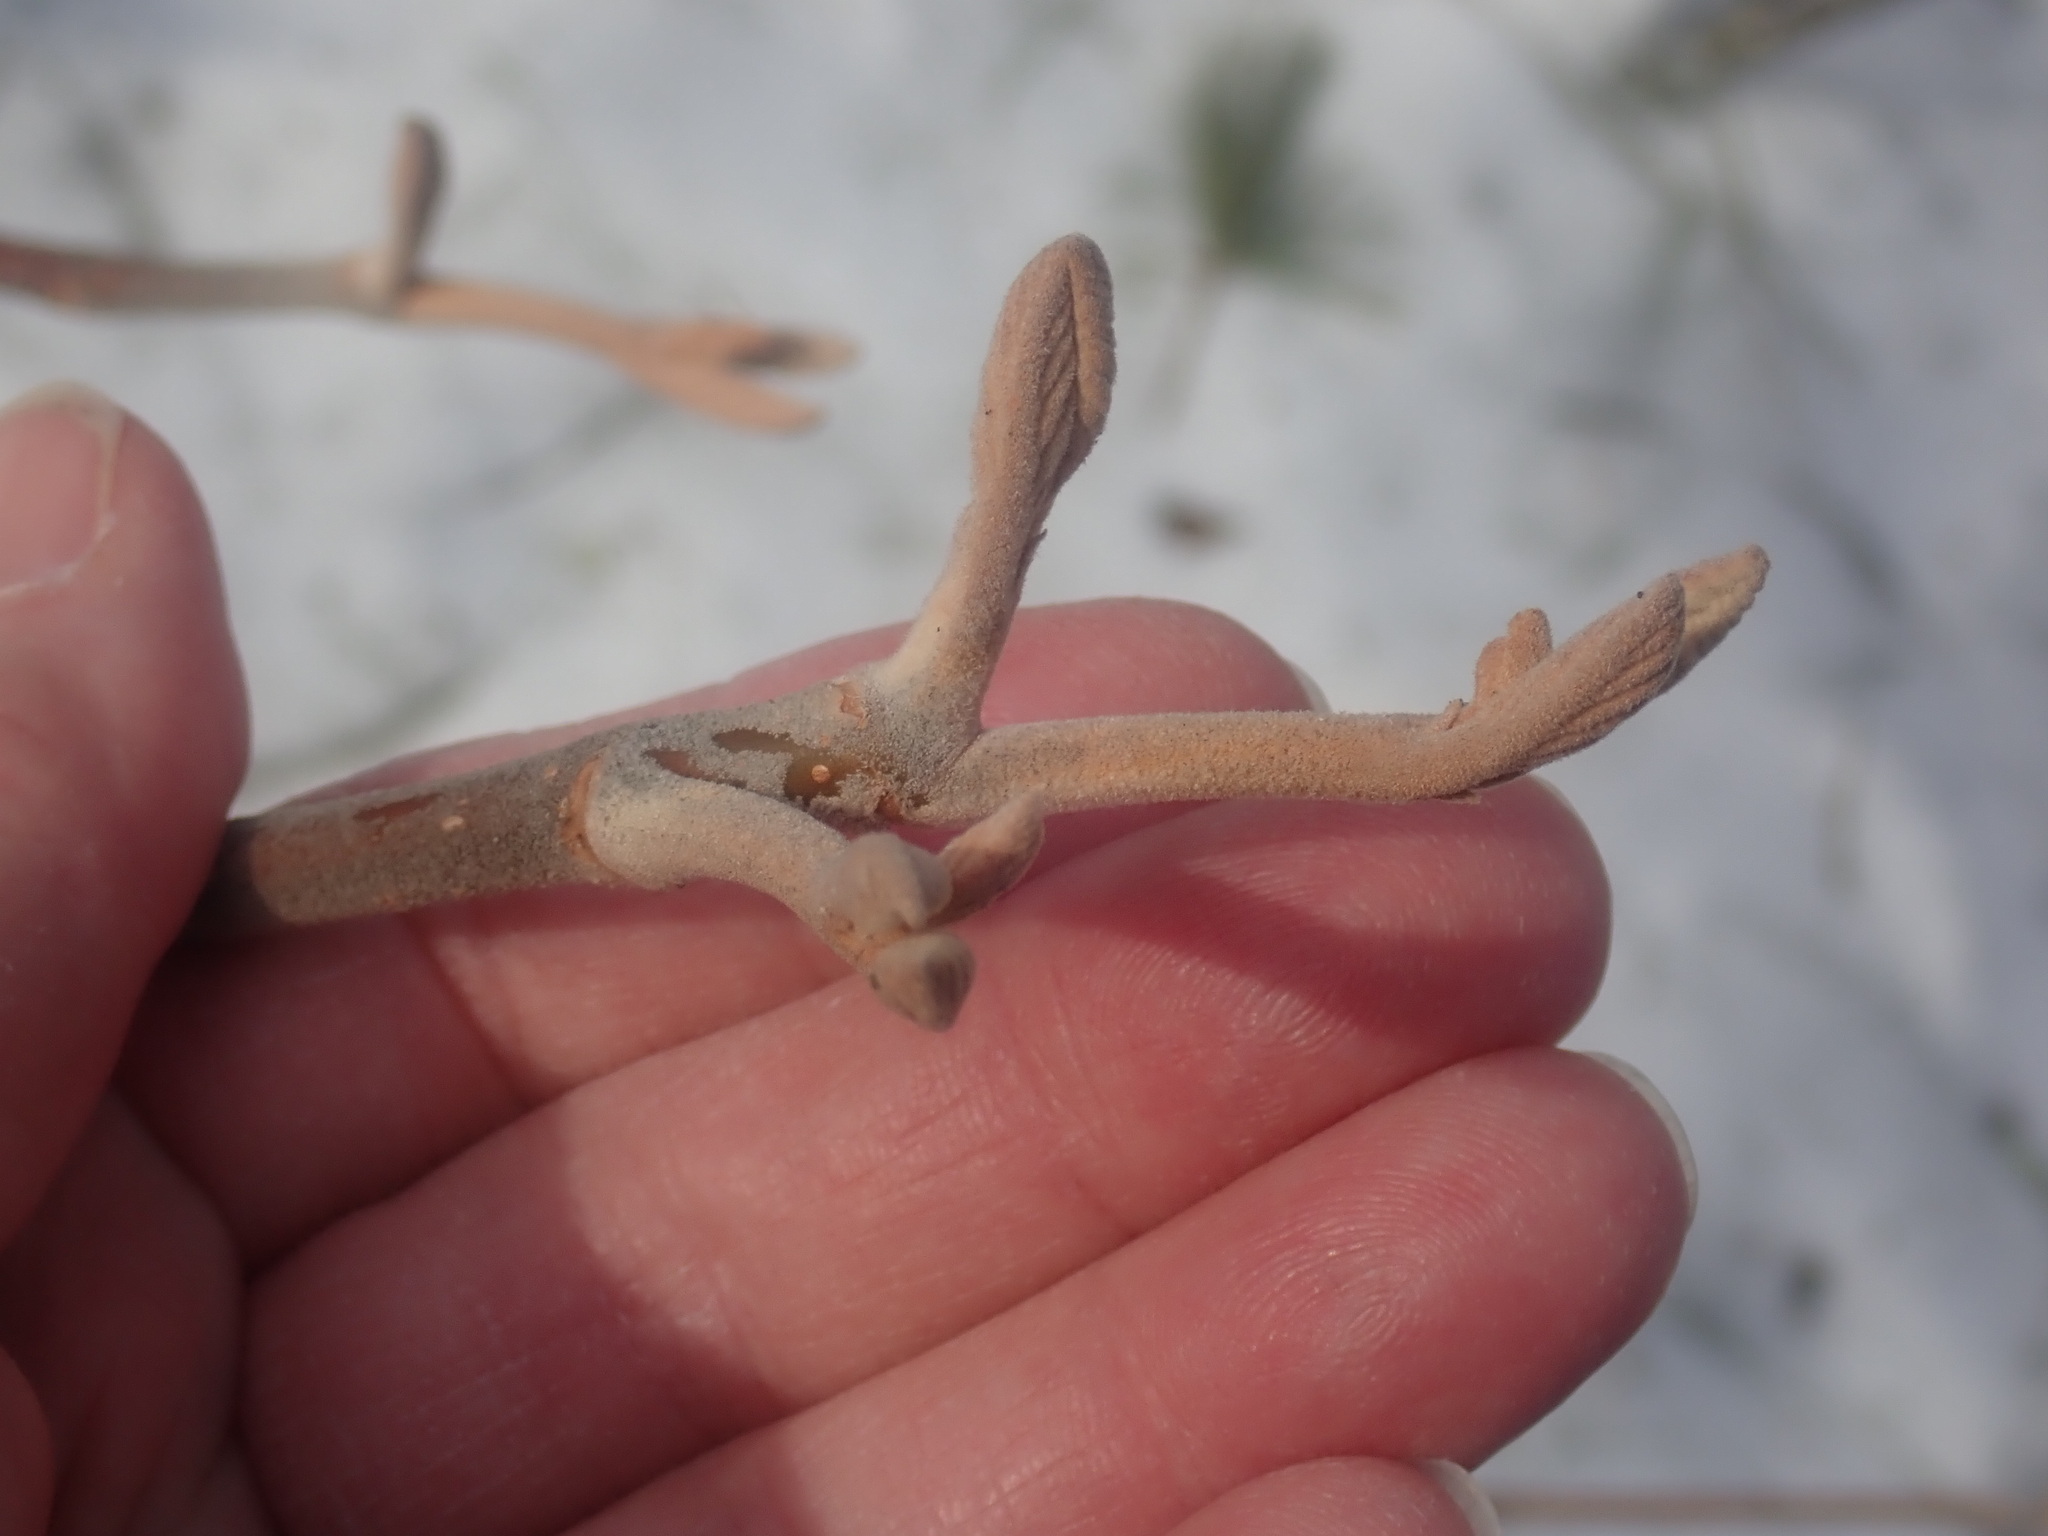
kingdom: Plantae
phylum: Tracheophyta
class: Magnoliopsida
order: Dipsacales
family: Viburnaceae
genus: Viburnum
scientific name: Viburnum lantanoides
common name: Hobblebush
